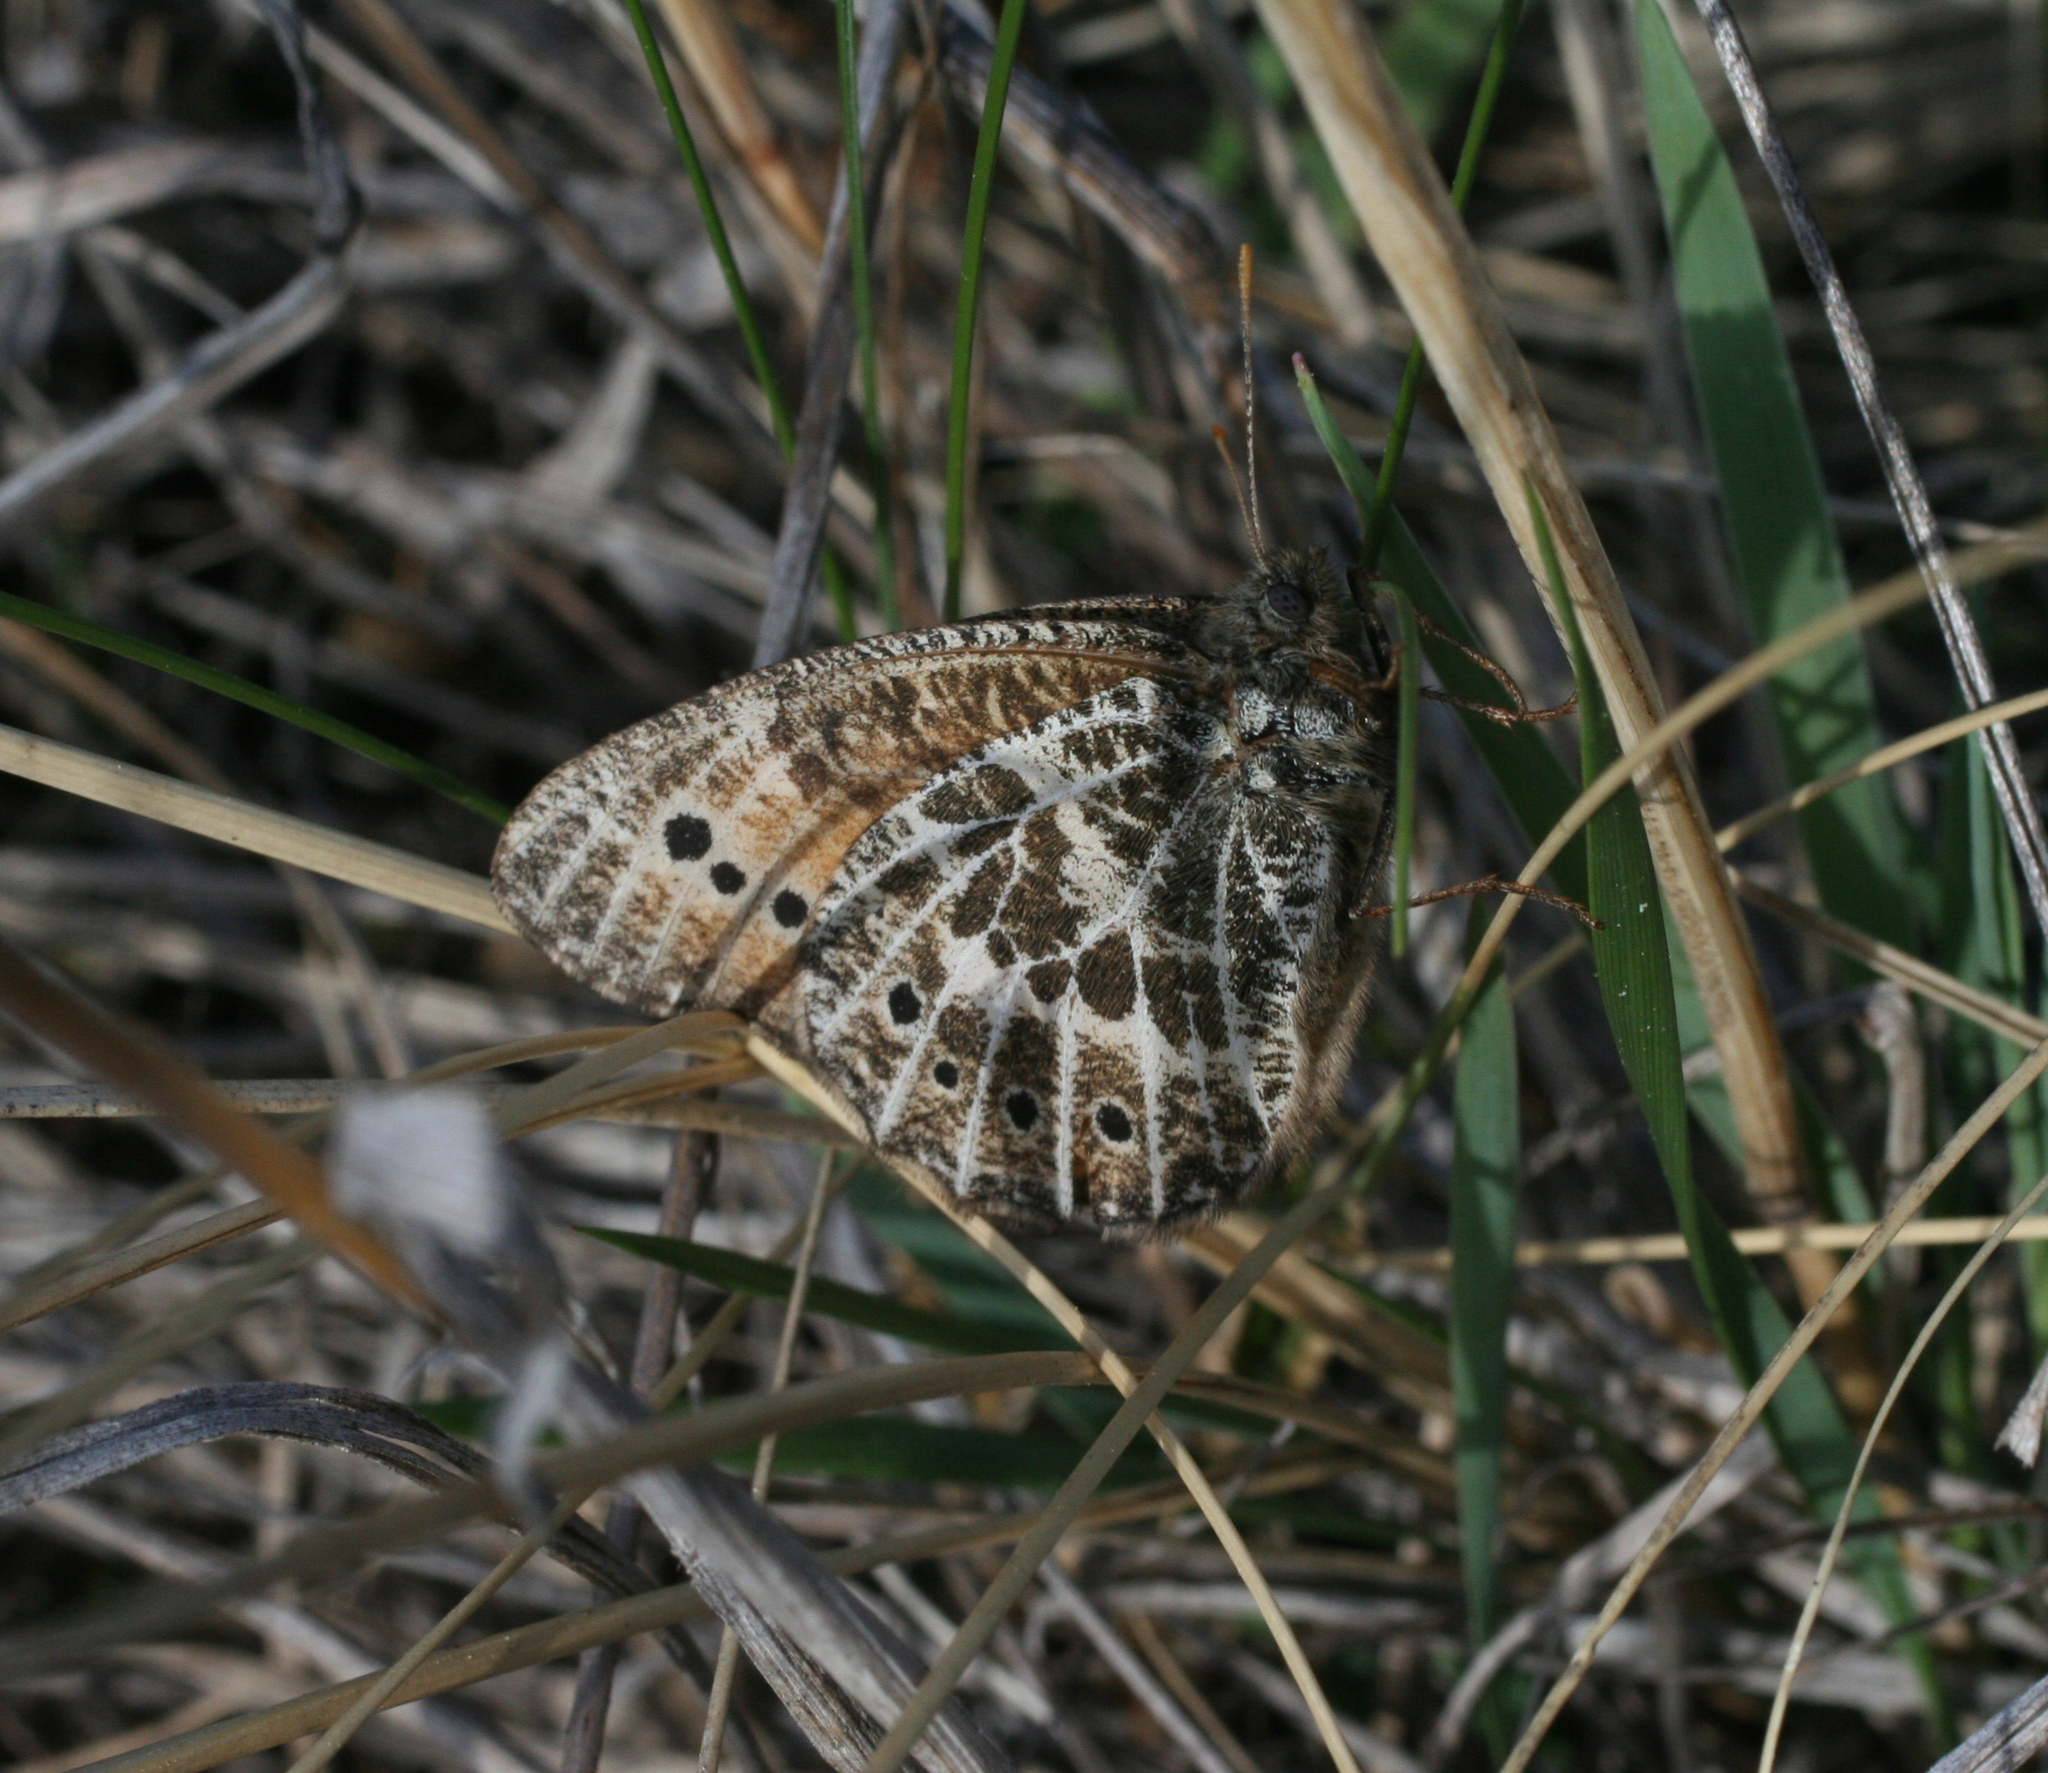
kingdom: Animalia
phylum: Arthropoda
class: Insecta
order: Lepidoptera
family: Nymphalidae
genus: Oeneis
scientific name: Oeneis tarpeia
